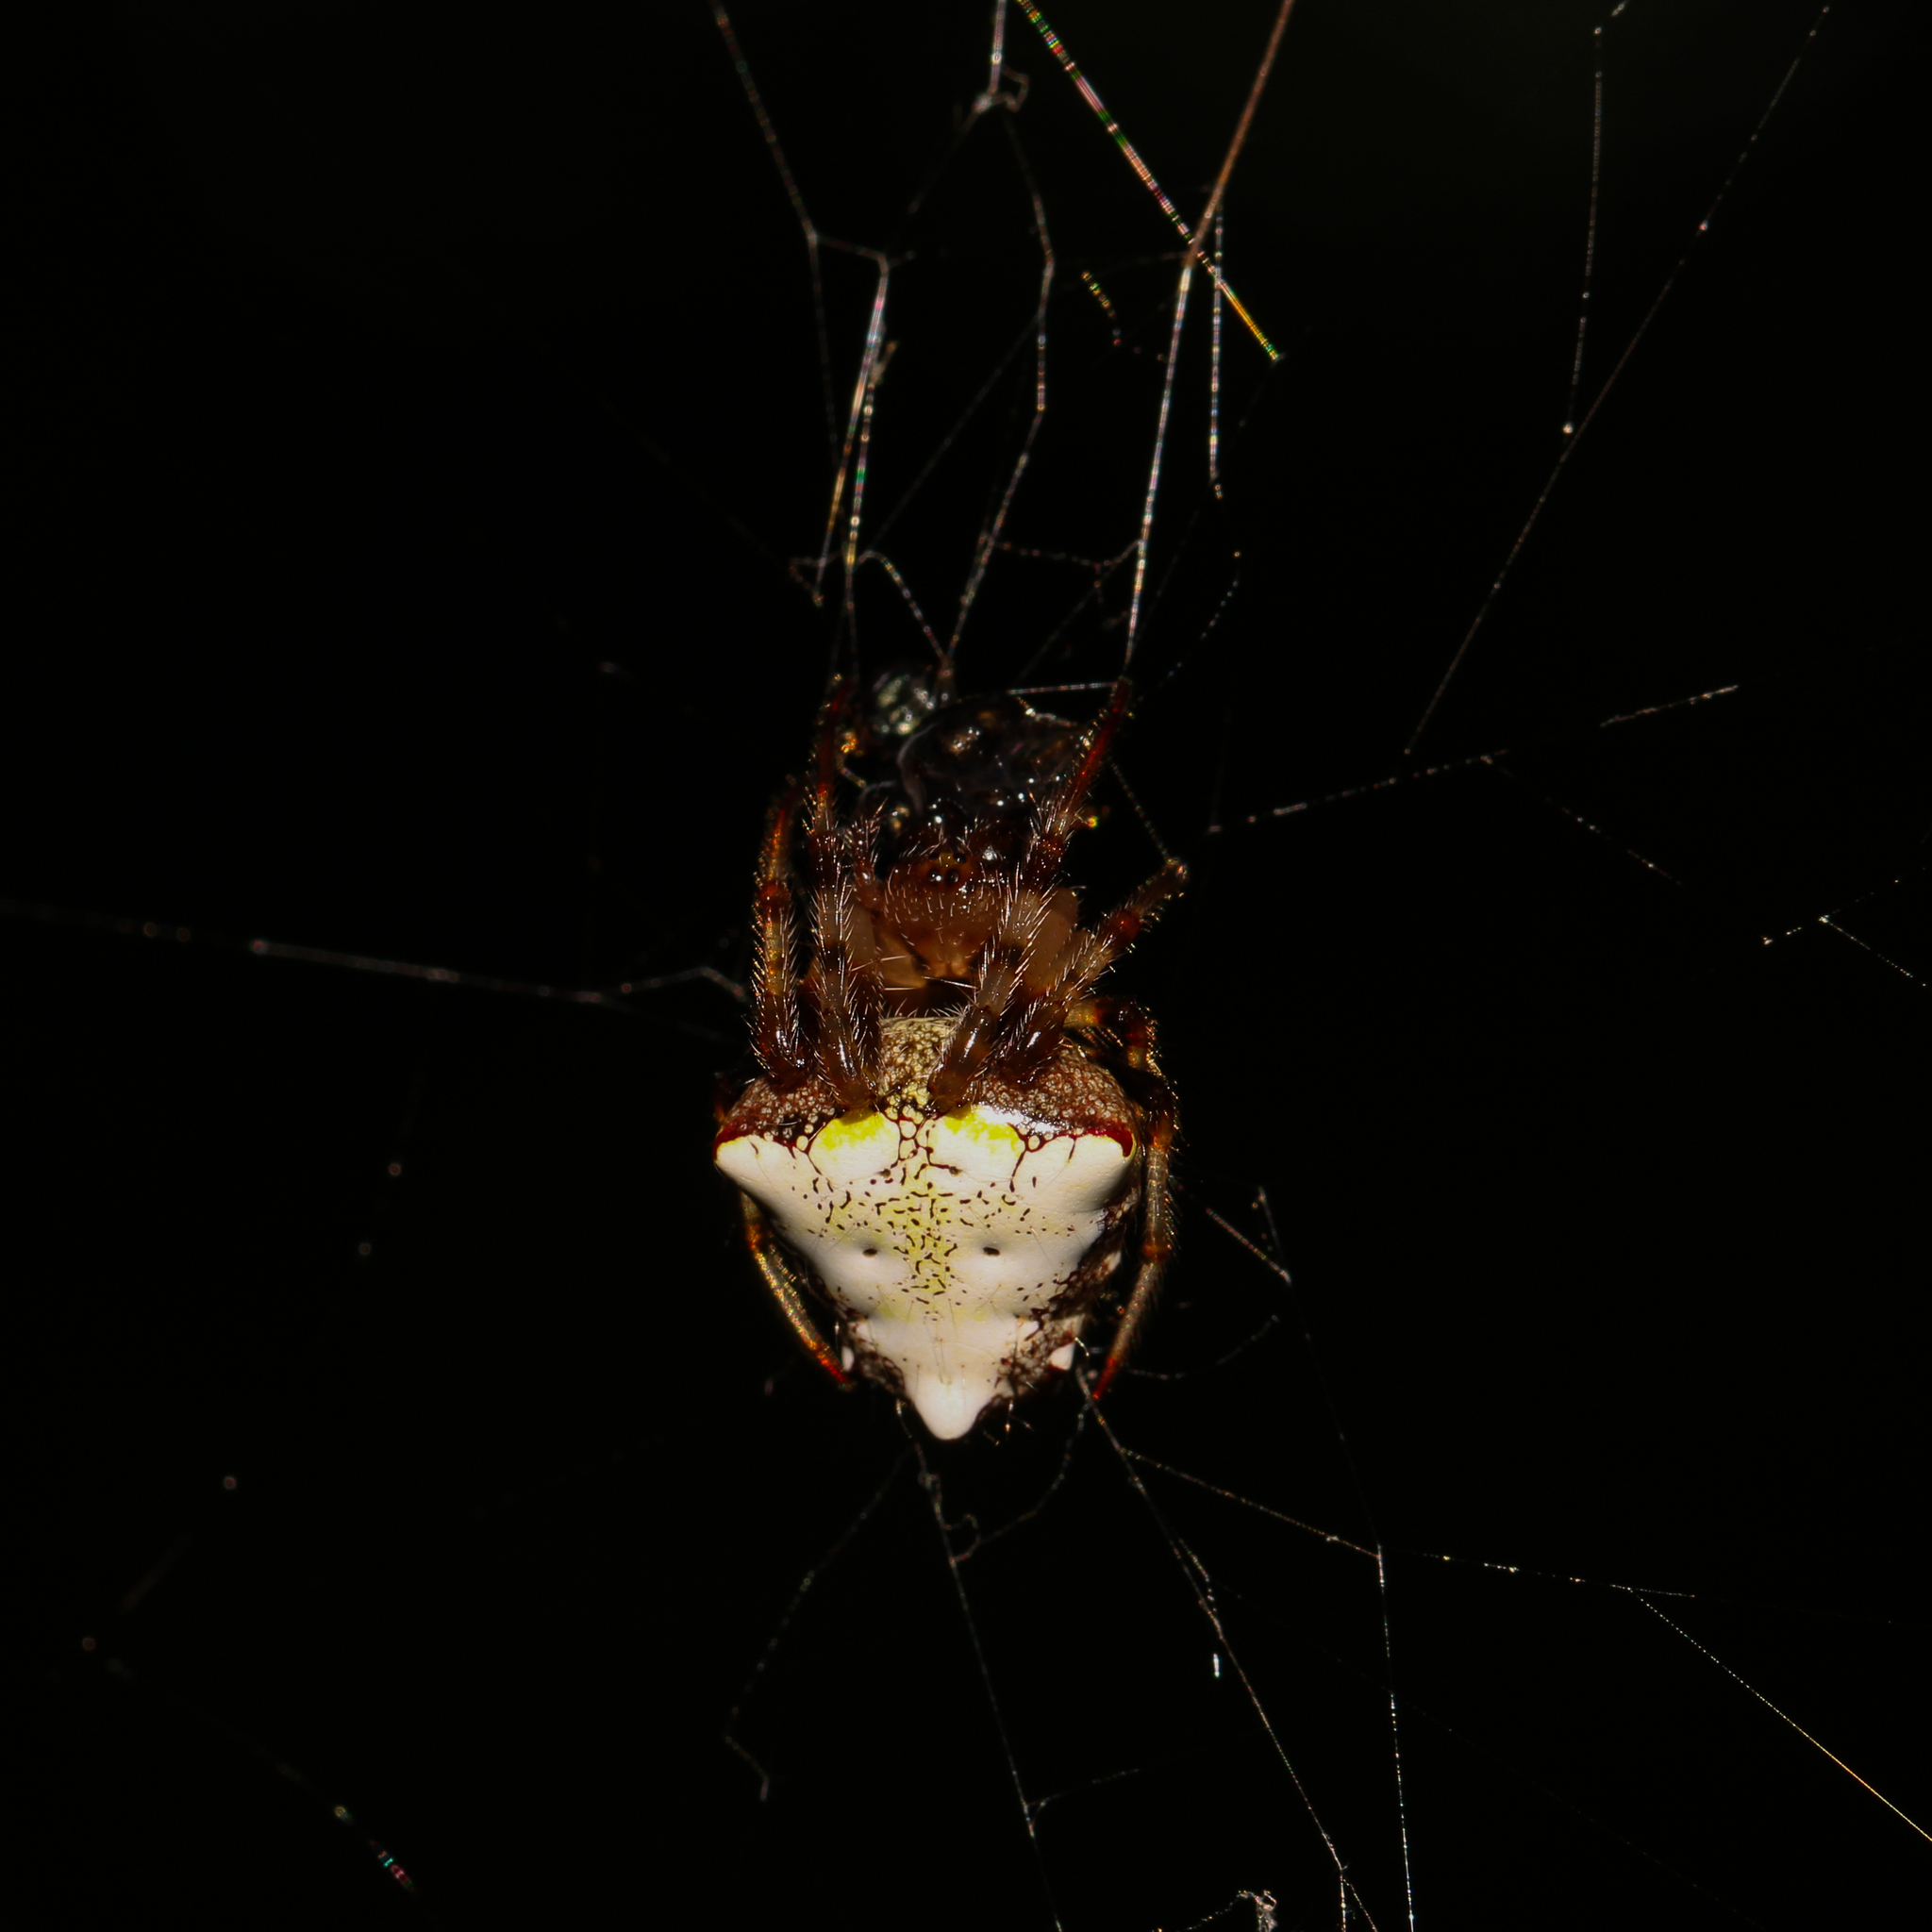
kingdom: Animalia
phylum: Arthropoda
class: Arachnida
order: Araneae
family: Araneidae
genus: Verrucosa
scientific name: Verrucosa arenata
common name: Orb weavers
